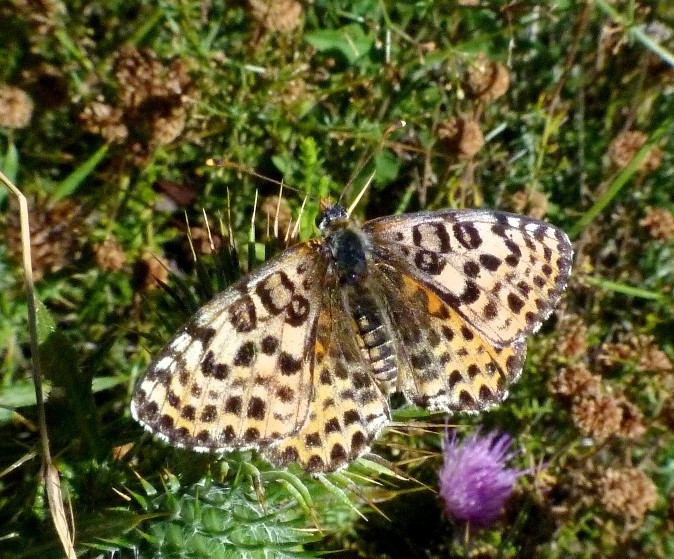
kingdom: Animalia
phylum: Arthropoda
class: Insecta
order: Lepidoptera
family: Nymphalidae
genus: Melitaea
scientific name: Melitaea didyma
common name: Spotted fritillary
